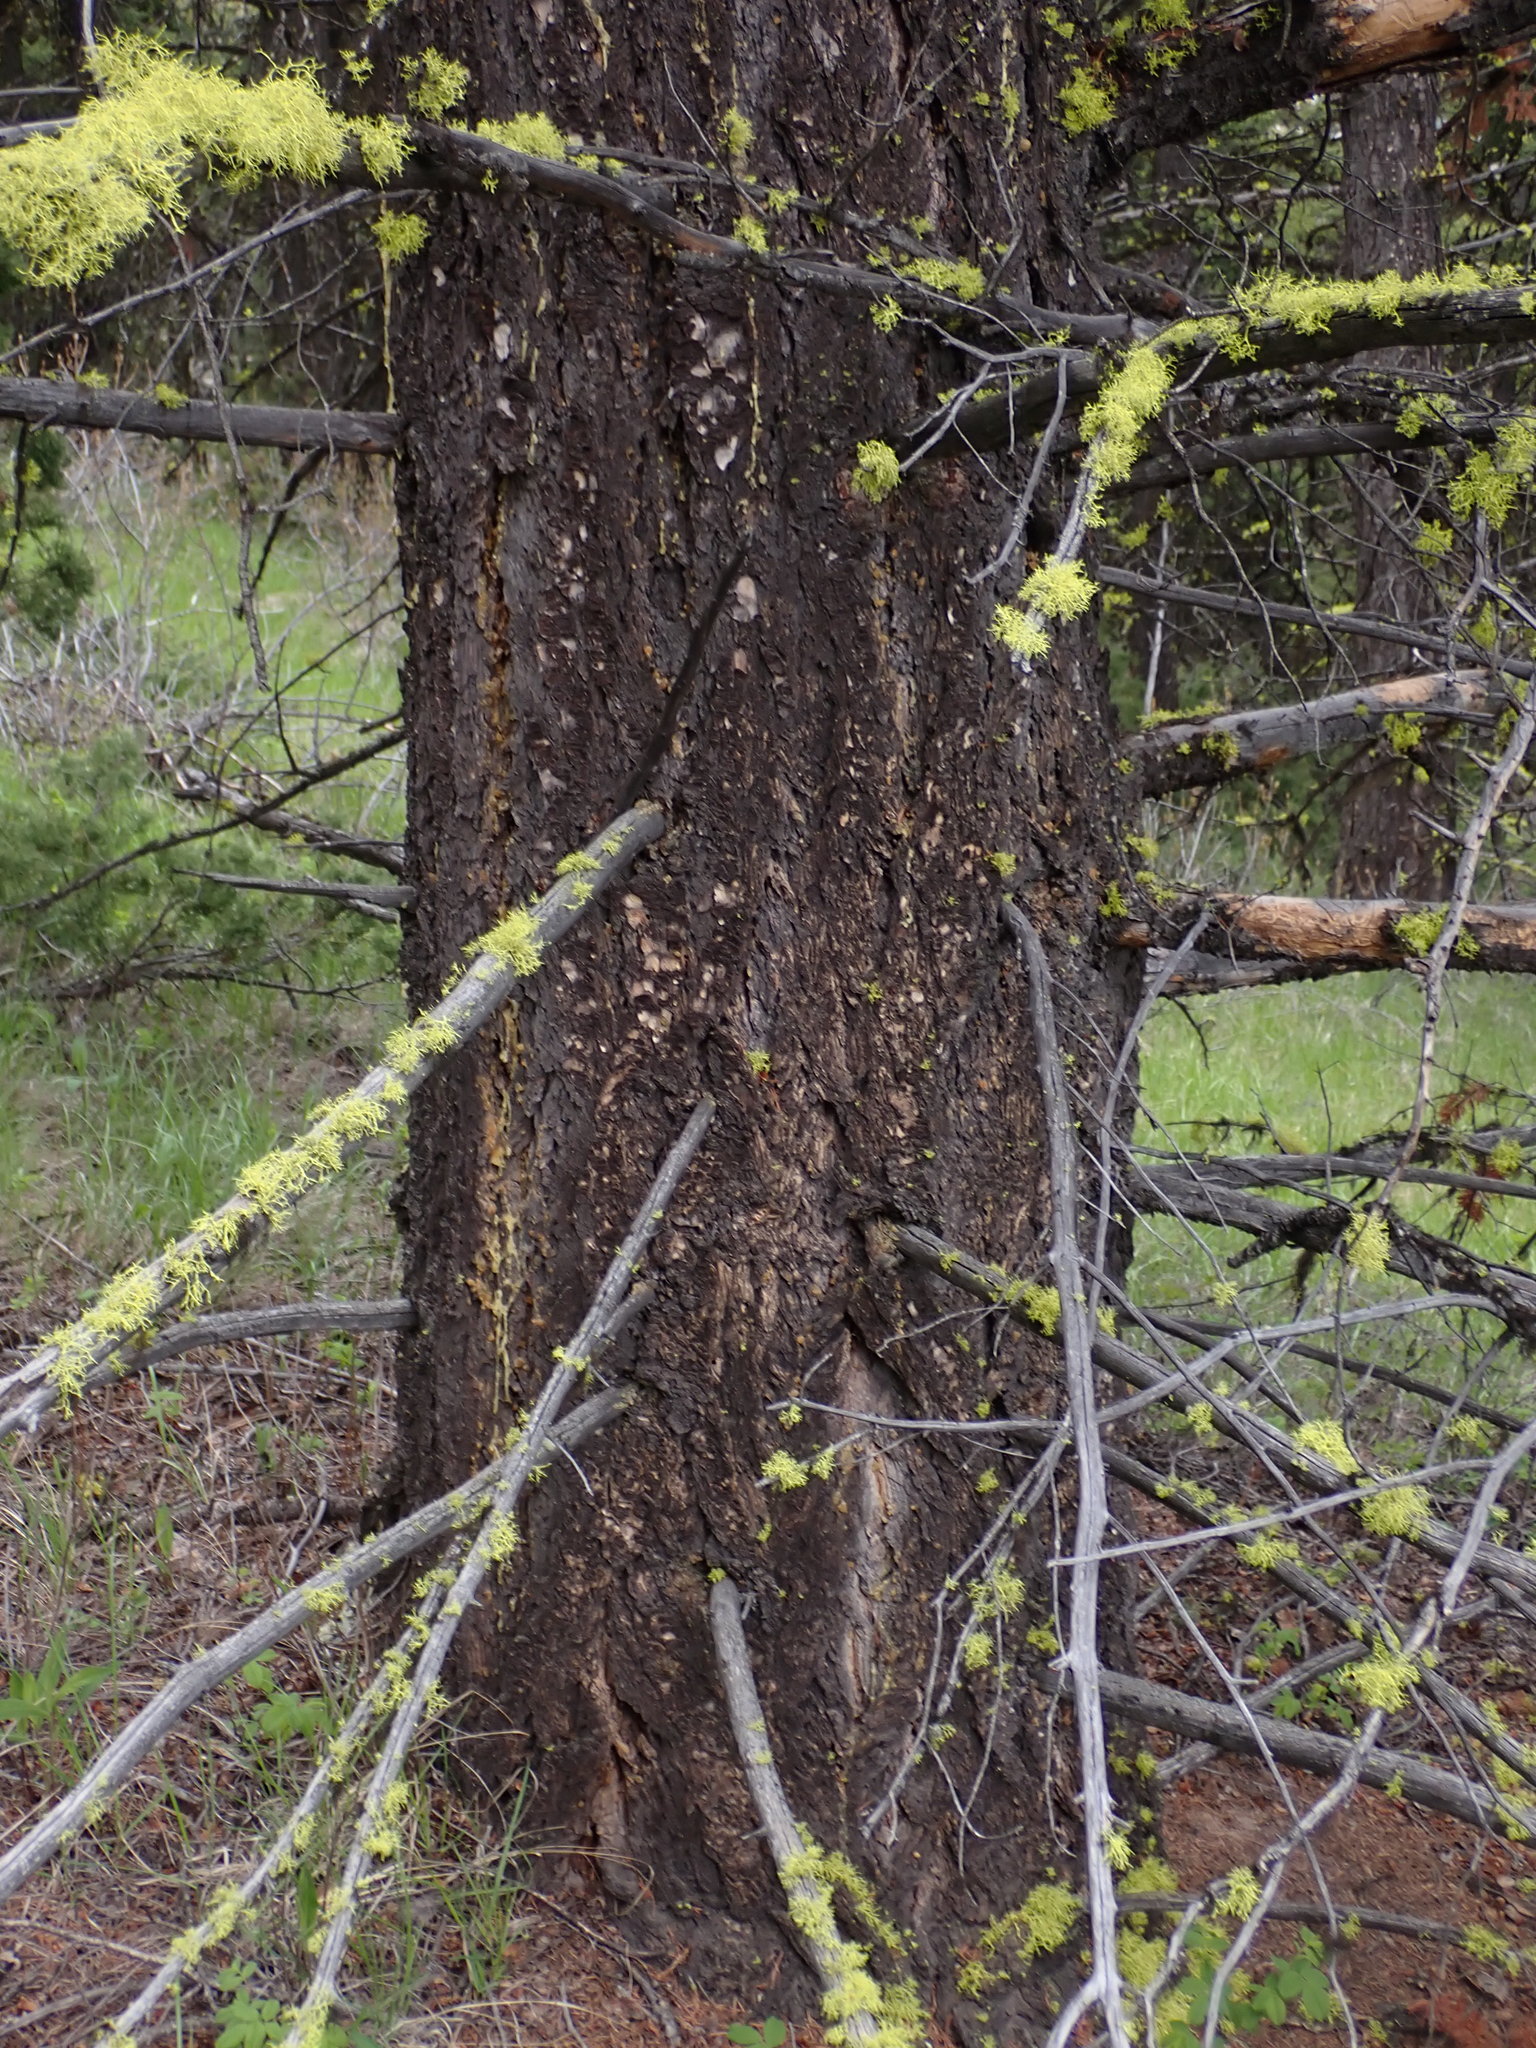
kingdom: Plantae
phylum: Tracheophyta
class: Pinopsida
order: Pinales
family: Pinaceae
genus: Pseudotsuga
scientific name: Pseudotsuga menziesii
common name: Douglas fir
